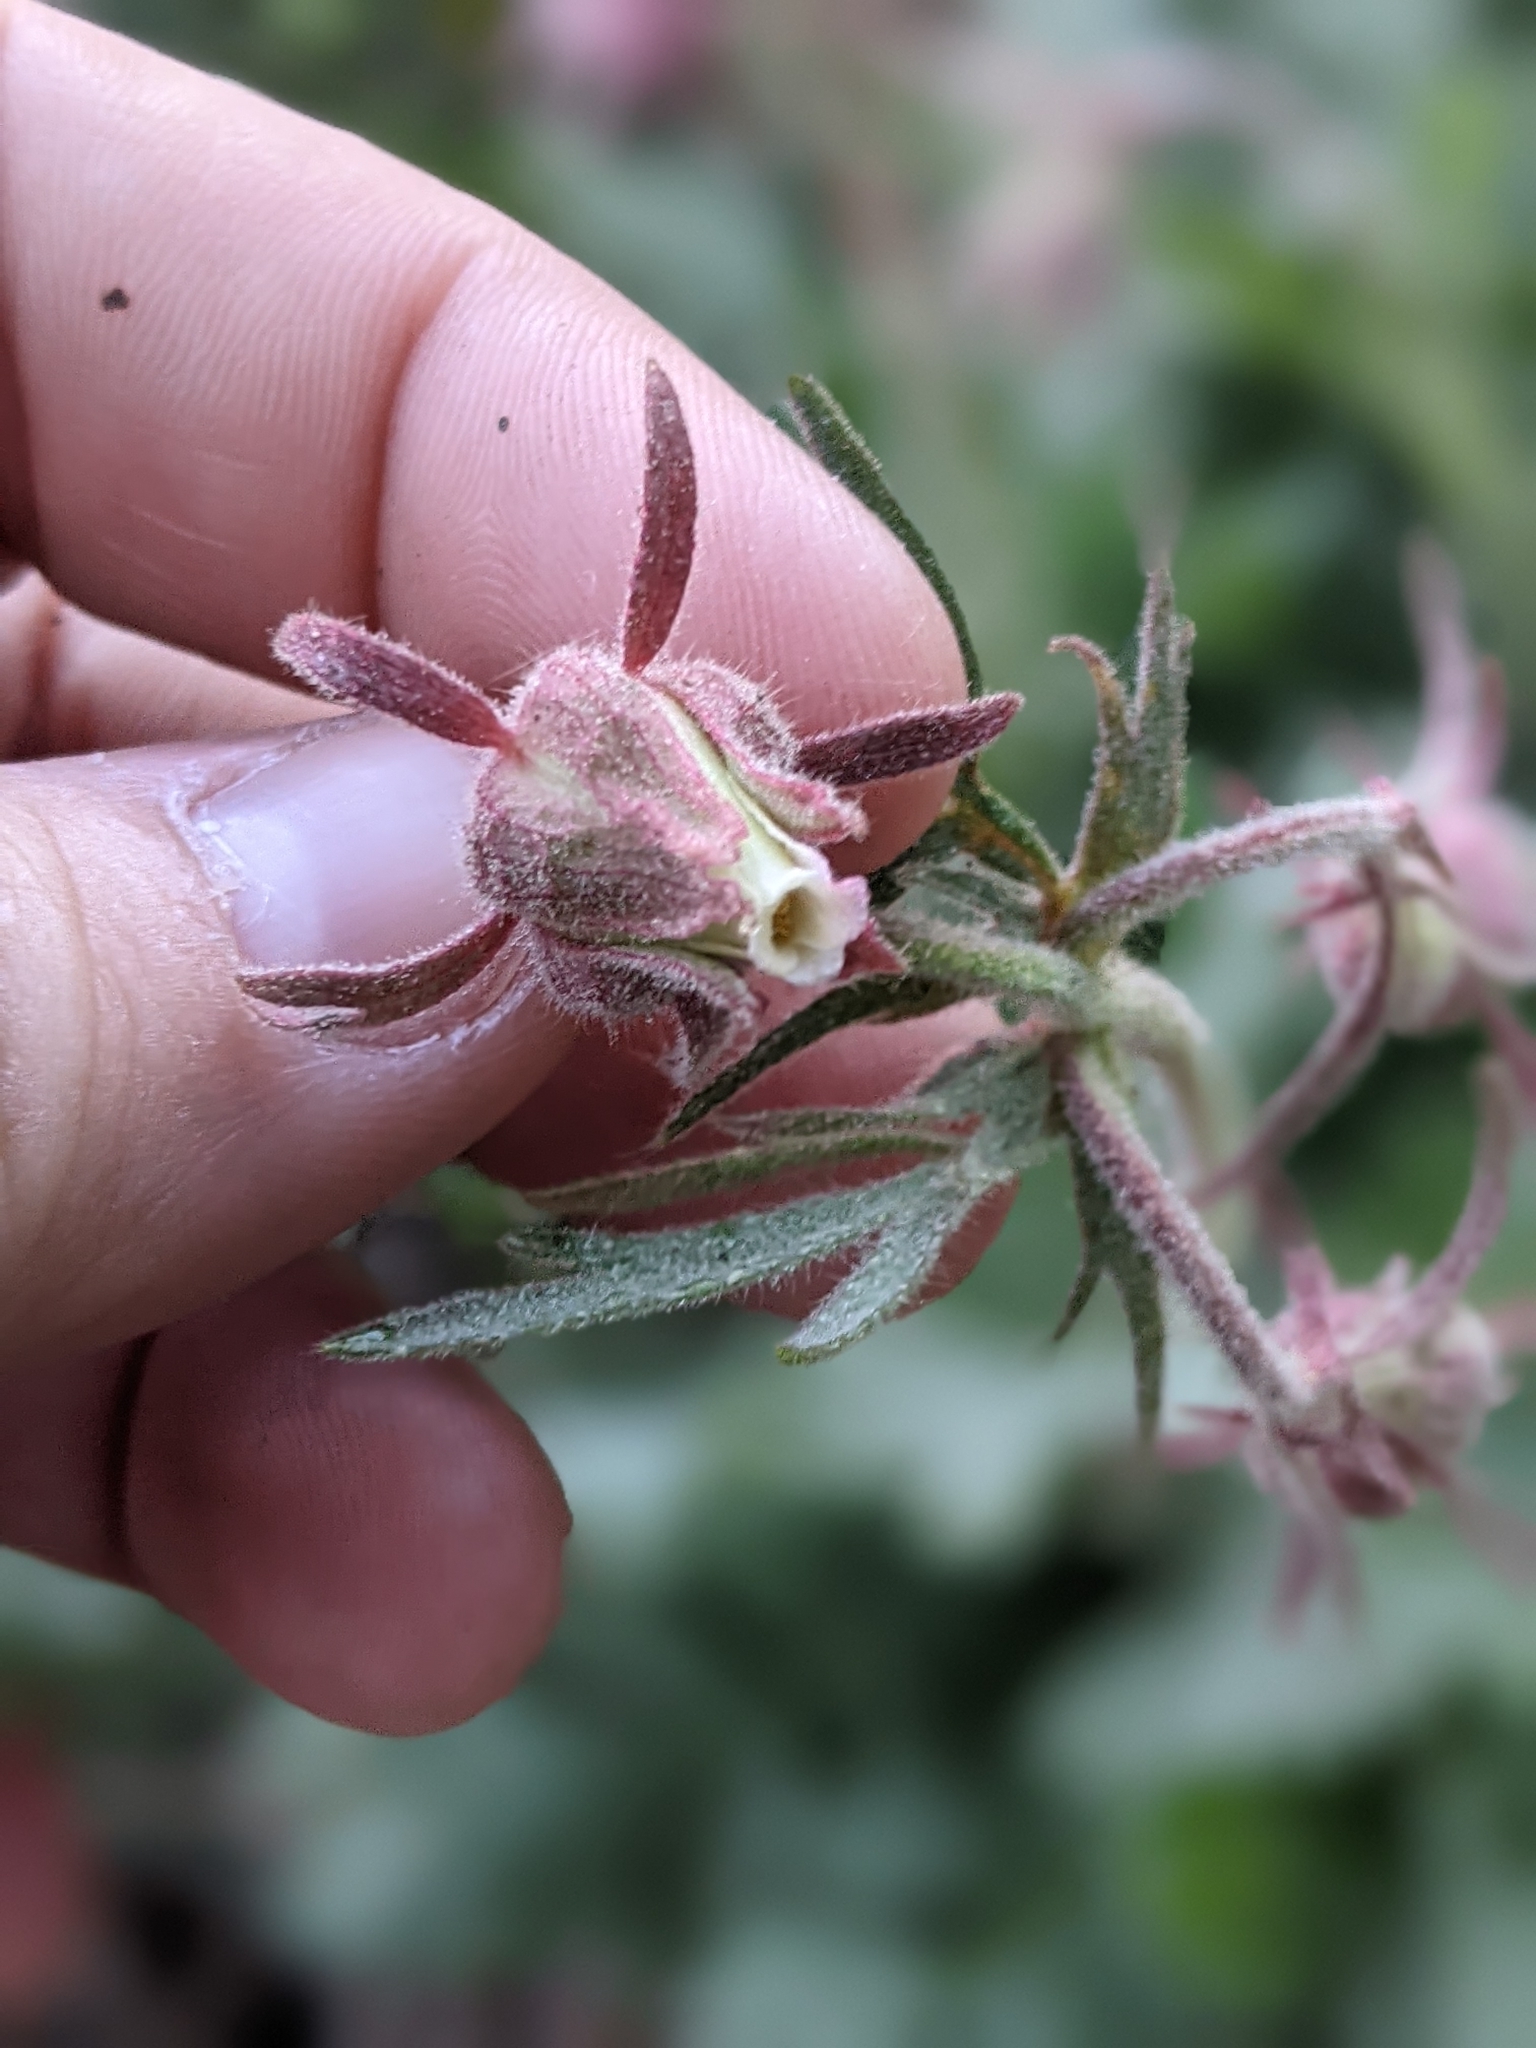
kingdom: Plantae
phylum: Tracheophyta
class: Magnoliopsida
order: Rosales
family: Rosaceae
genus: Geum
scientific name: Geum triflorum
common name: Old man's whiskers
